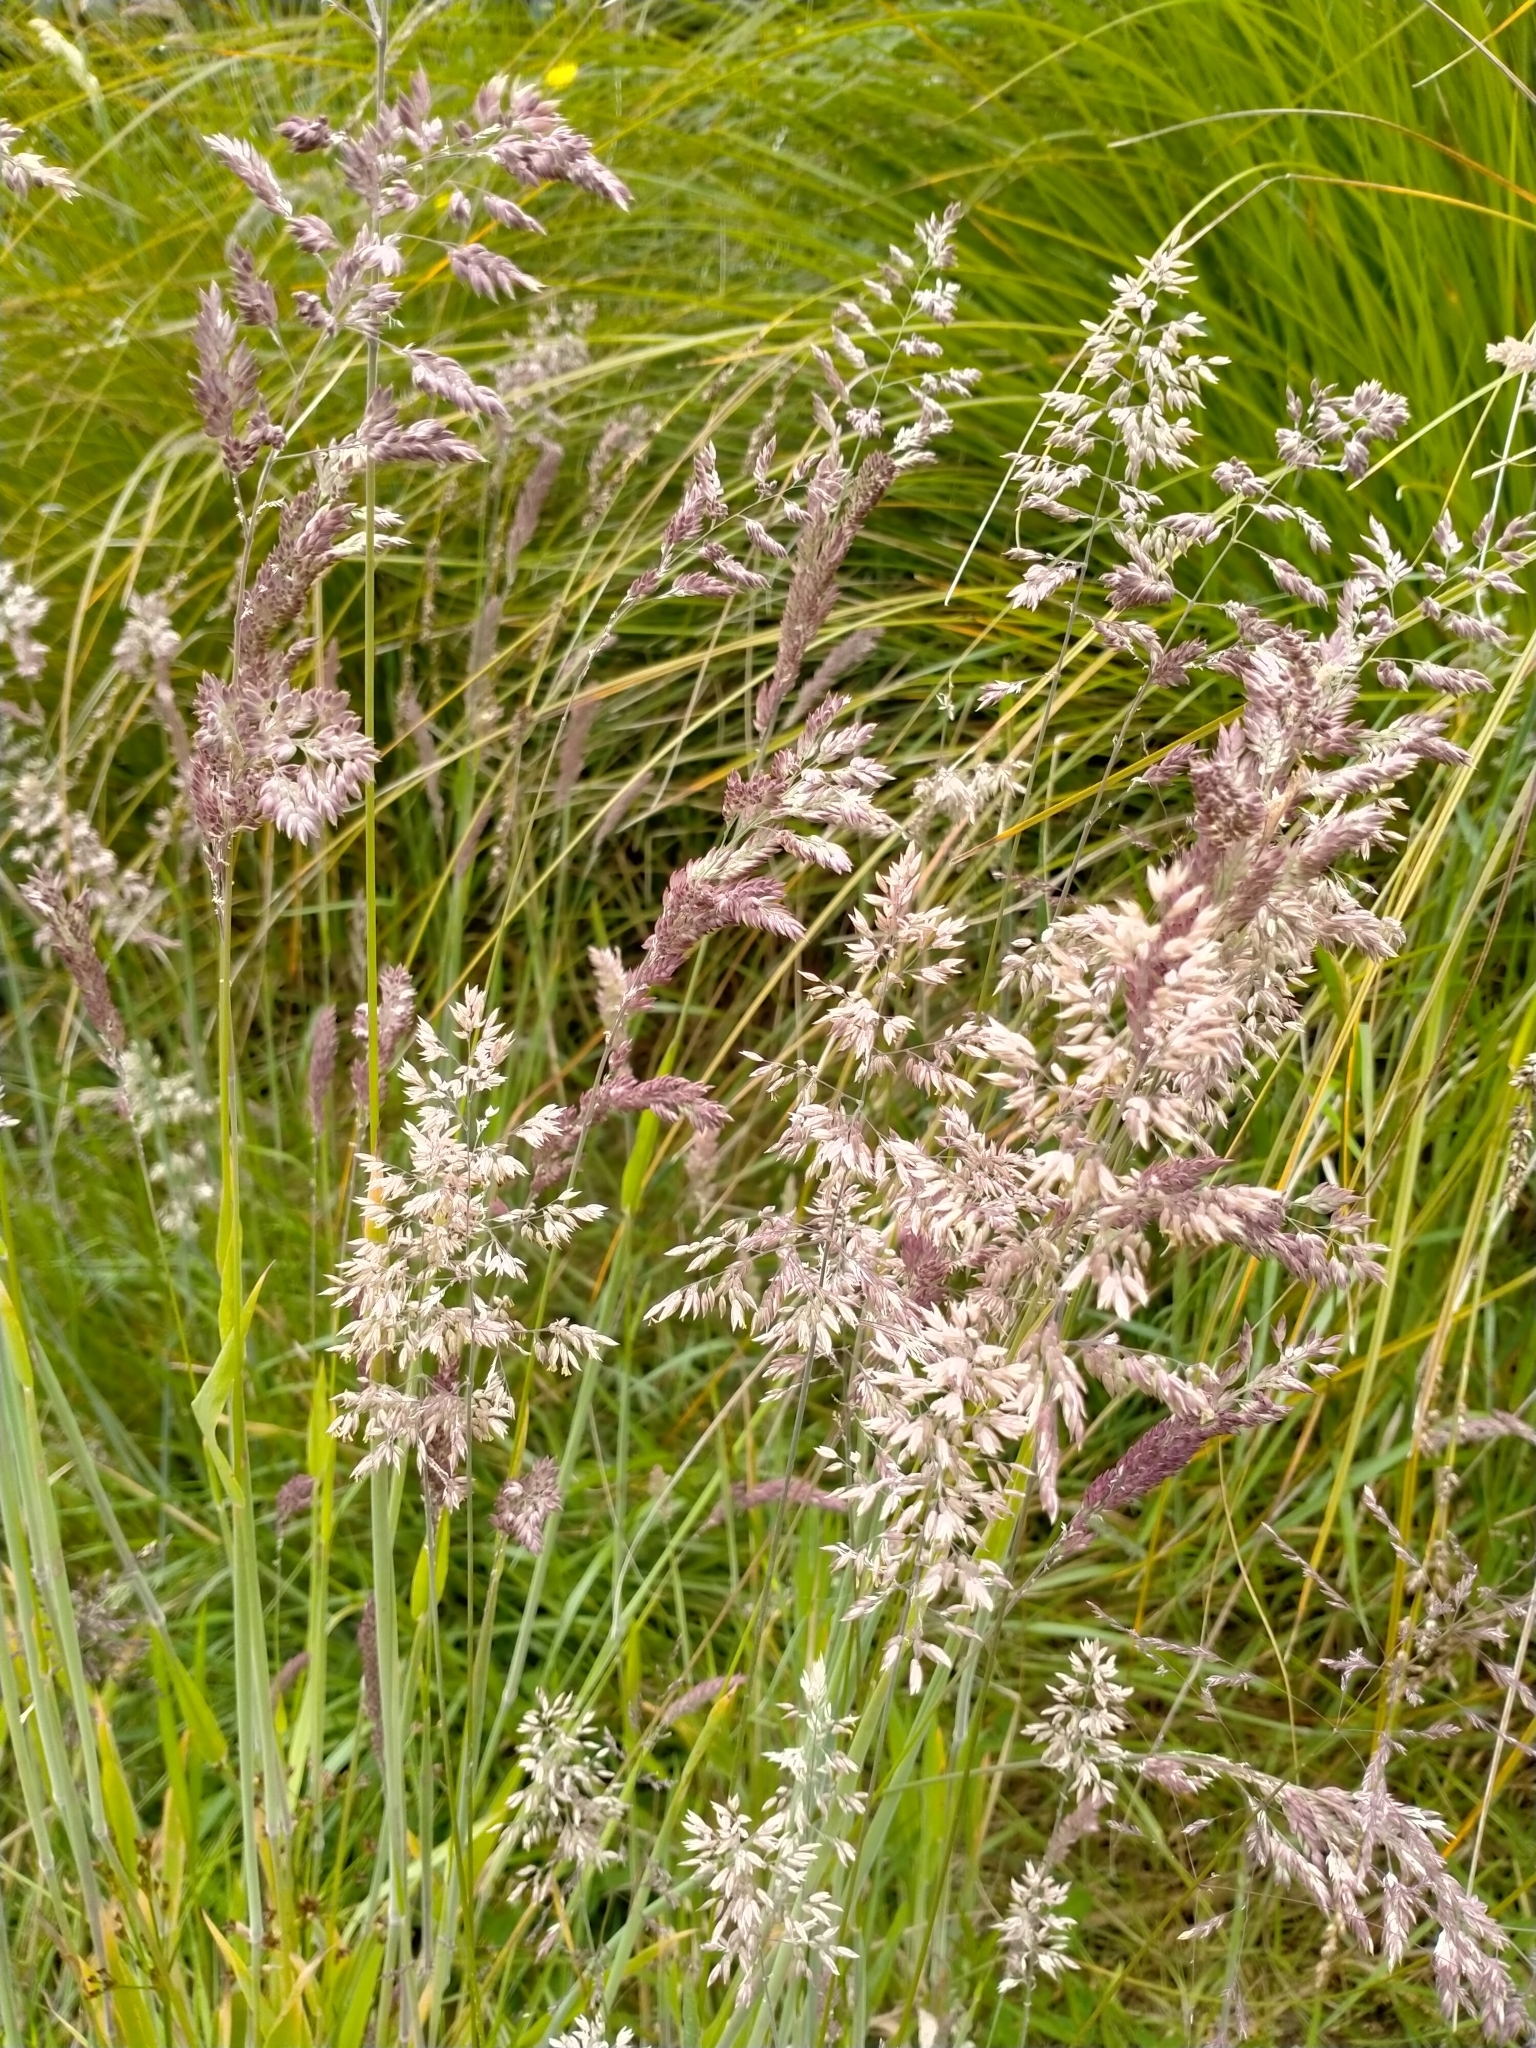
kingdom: Plantae
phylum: Tracheophyta
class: Liliopsida
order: Poales
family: Poaceae
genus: Holcus
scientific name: Holcus lanatus
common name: Yorkshire-fog
